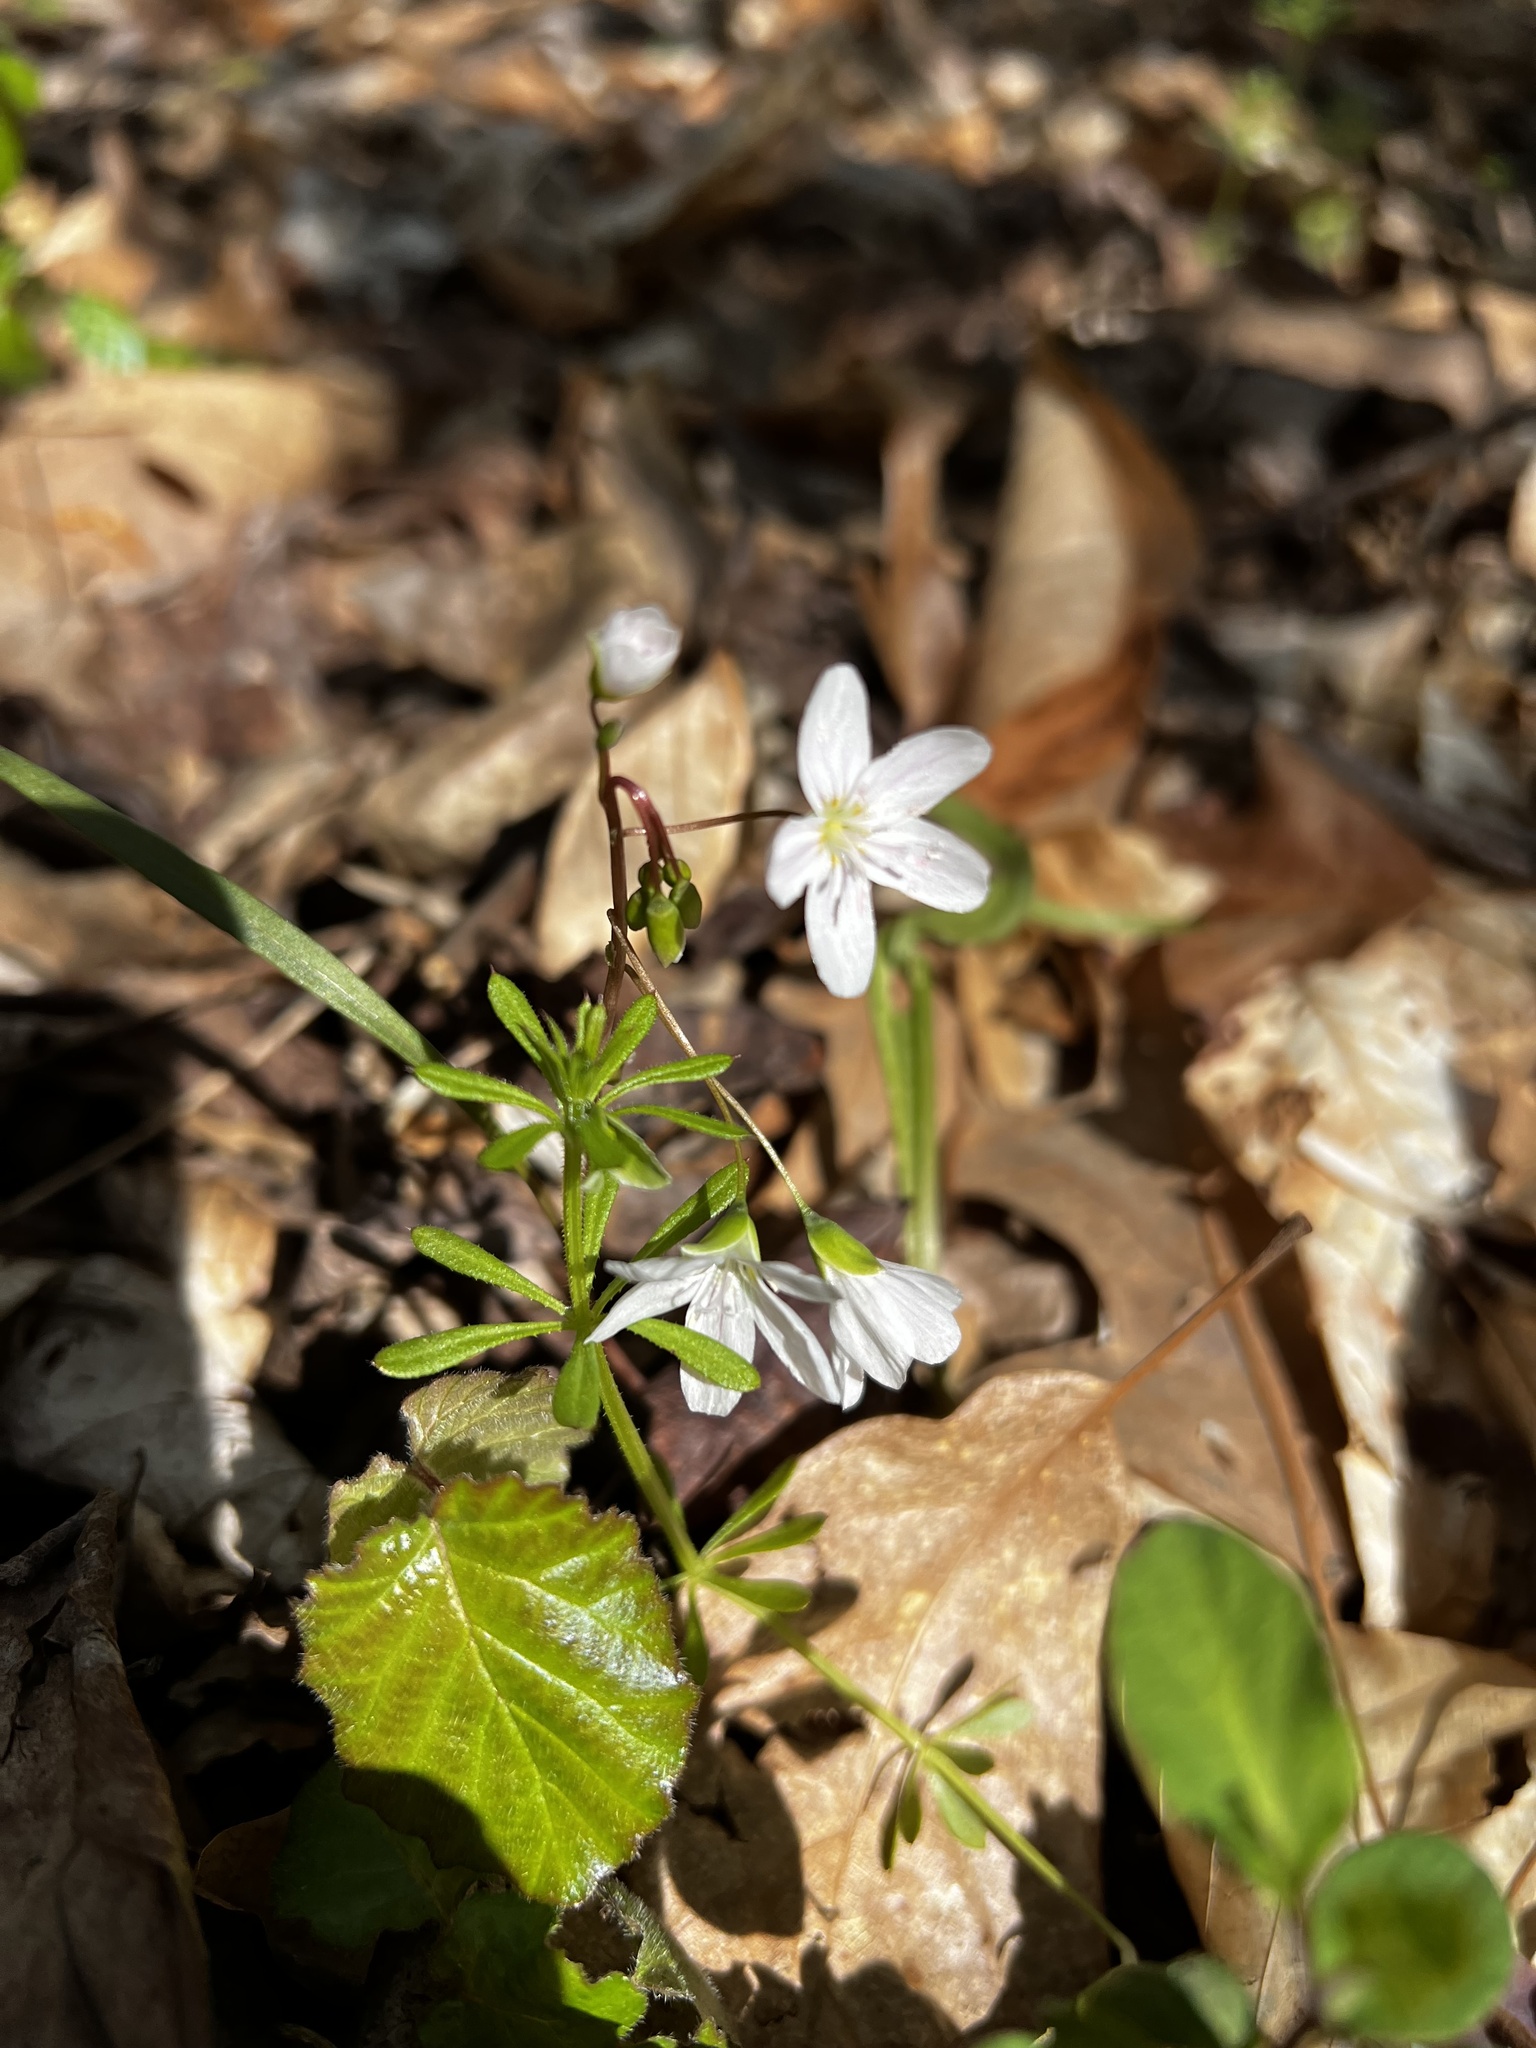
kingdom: Plantae
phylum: Tracheophyta
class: Magnoliopsida
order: Caryophyllales
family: Montiaceae
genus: Claytonia
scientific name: Claytonia virginica
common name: Virginia springbeauty
